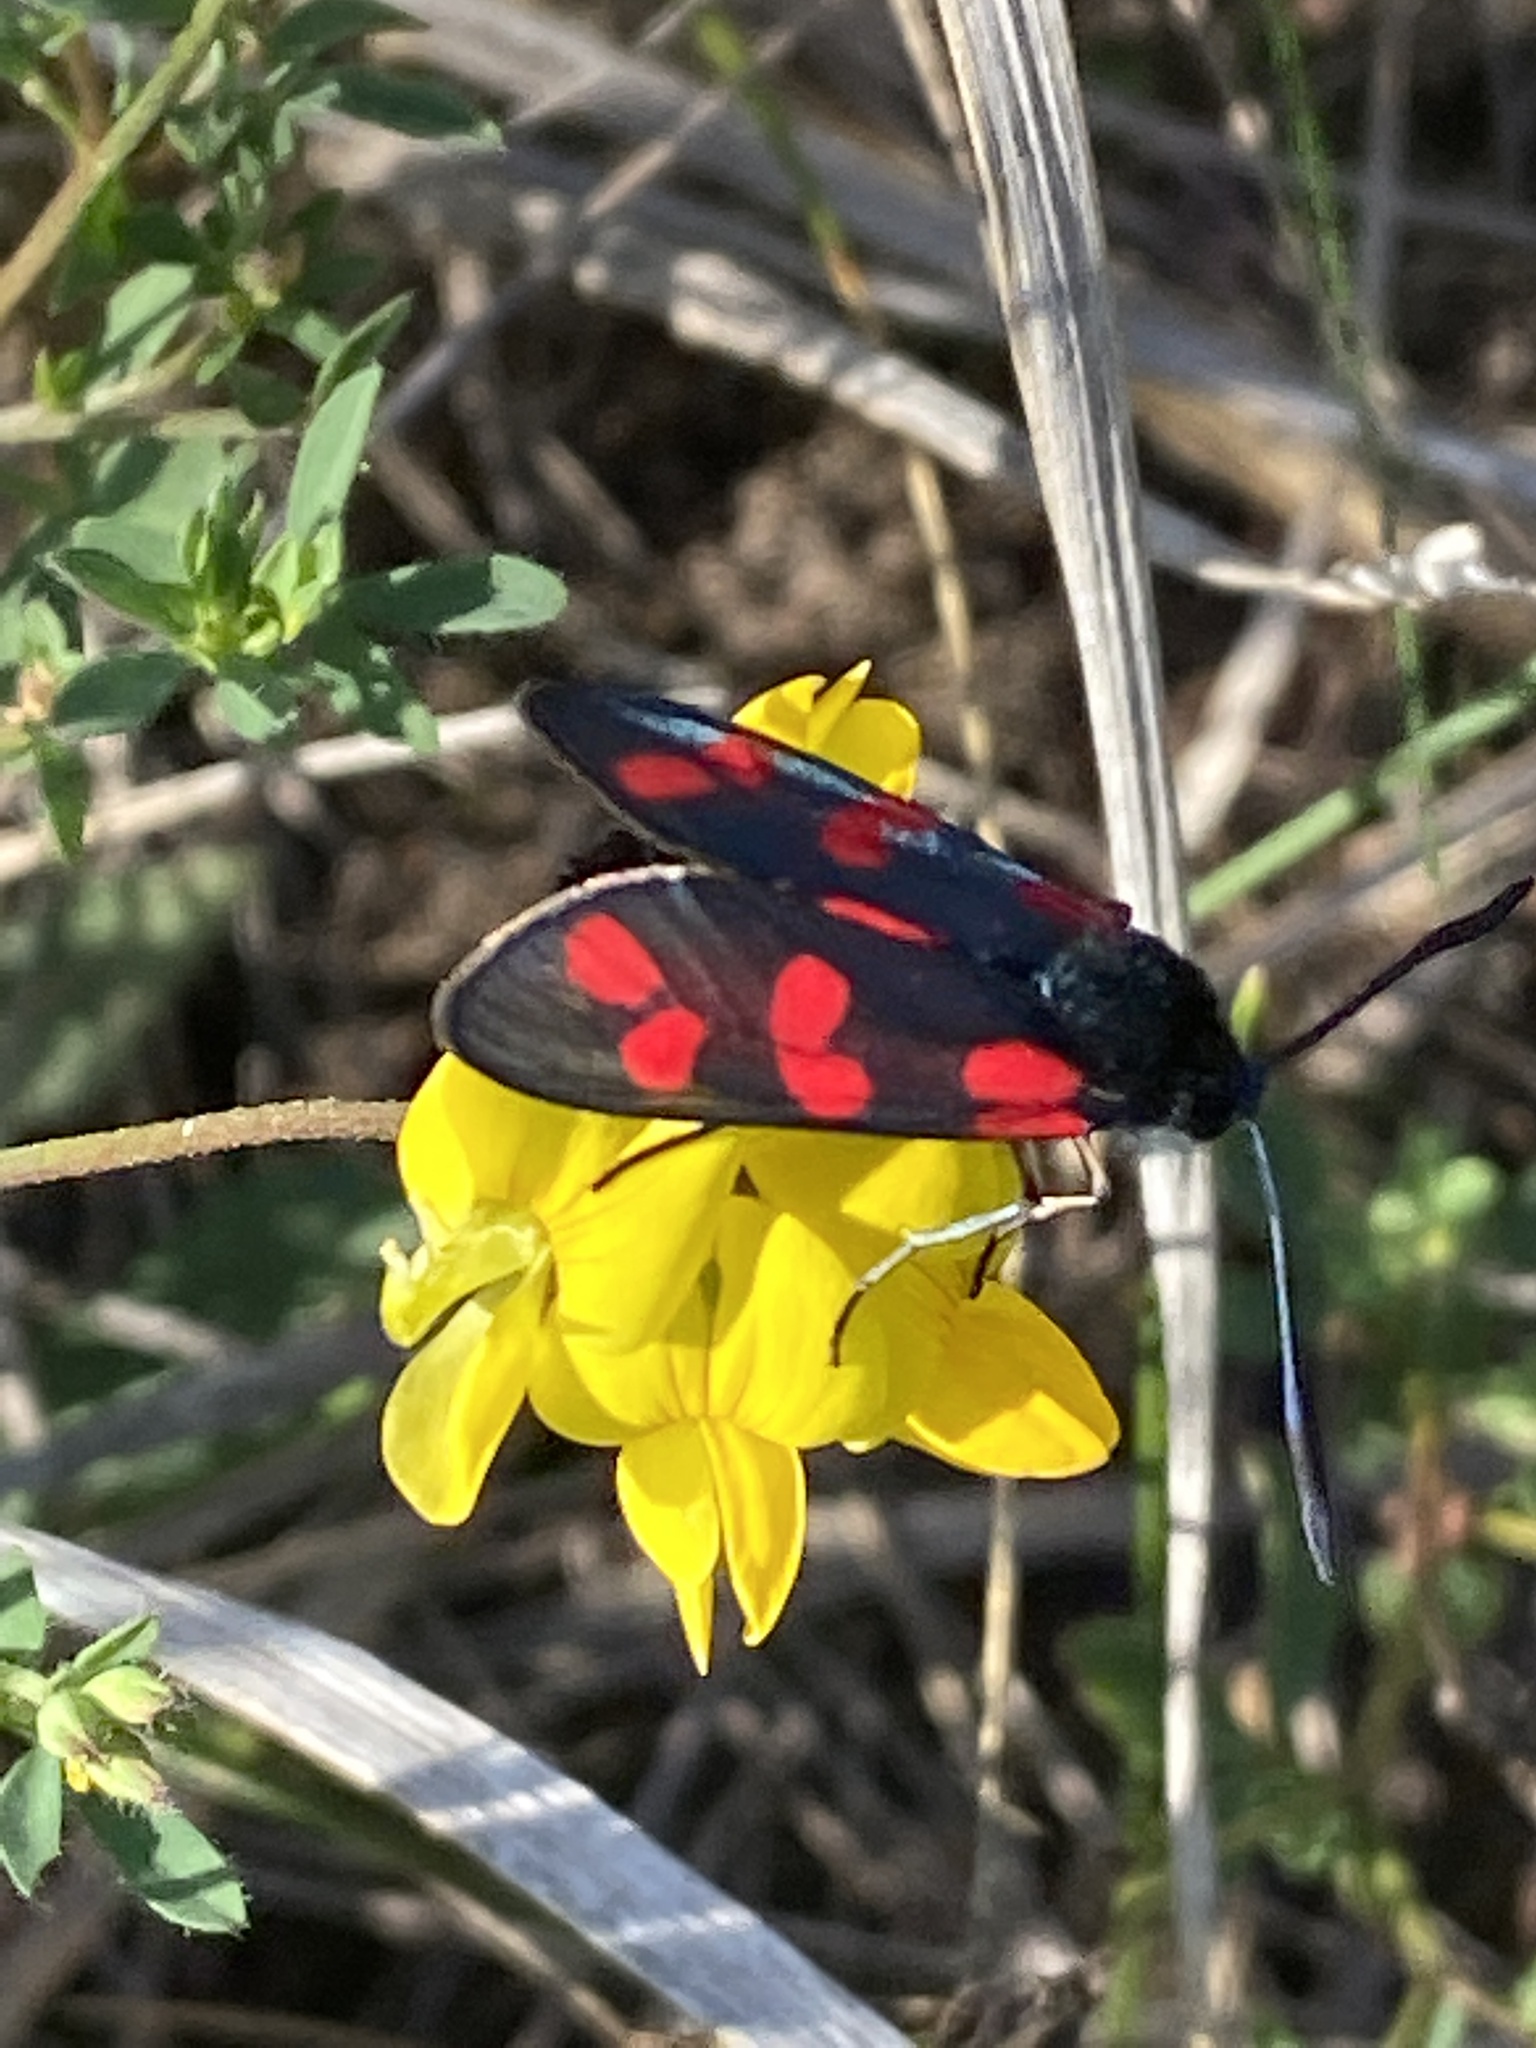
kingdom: Animalia
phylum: Arthropoda
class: Insecta
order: Lepidoptera
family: Zygaenidae
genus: Zygaena
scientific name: Zygaena filipendulae
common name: Six-spot burnet
